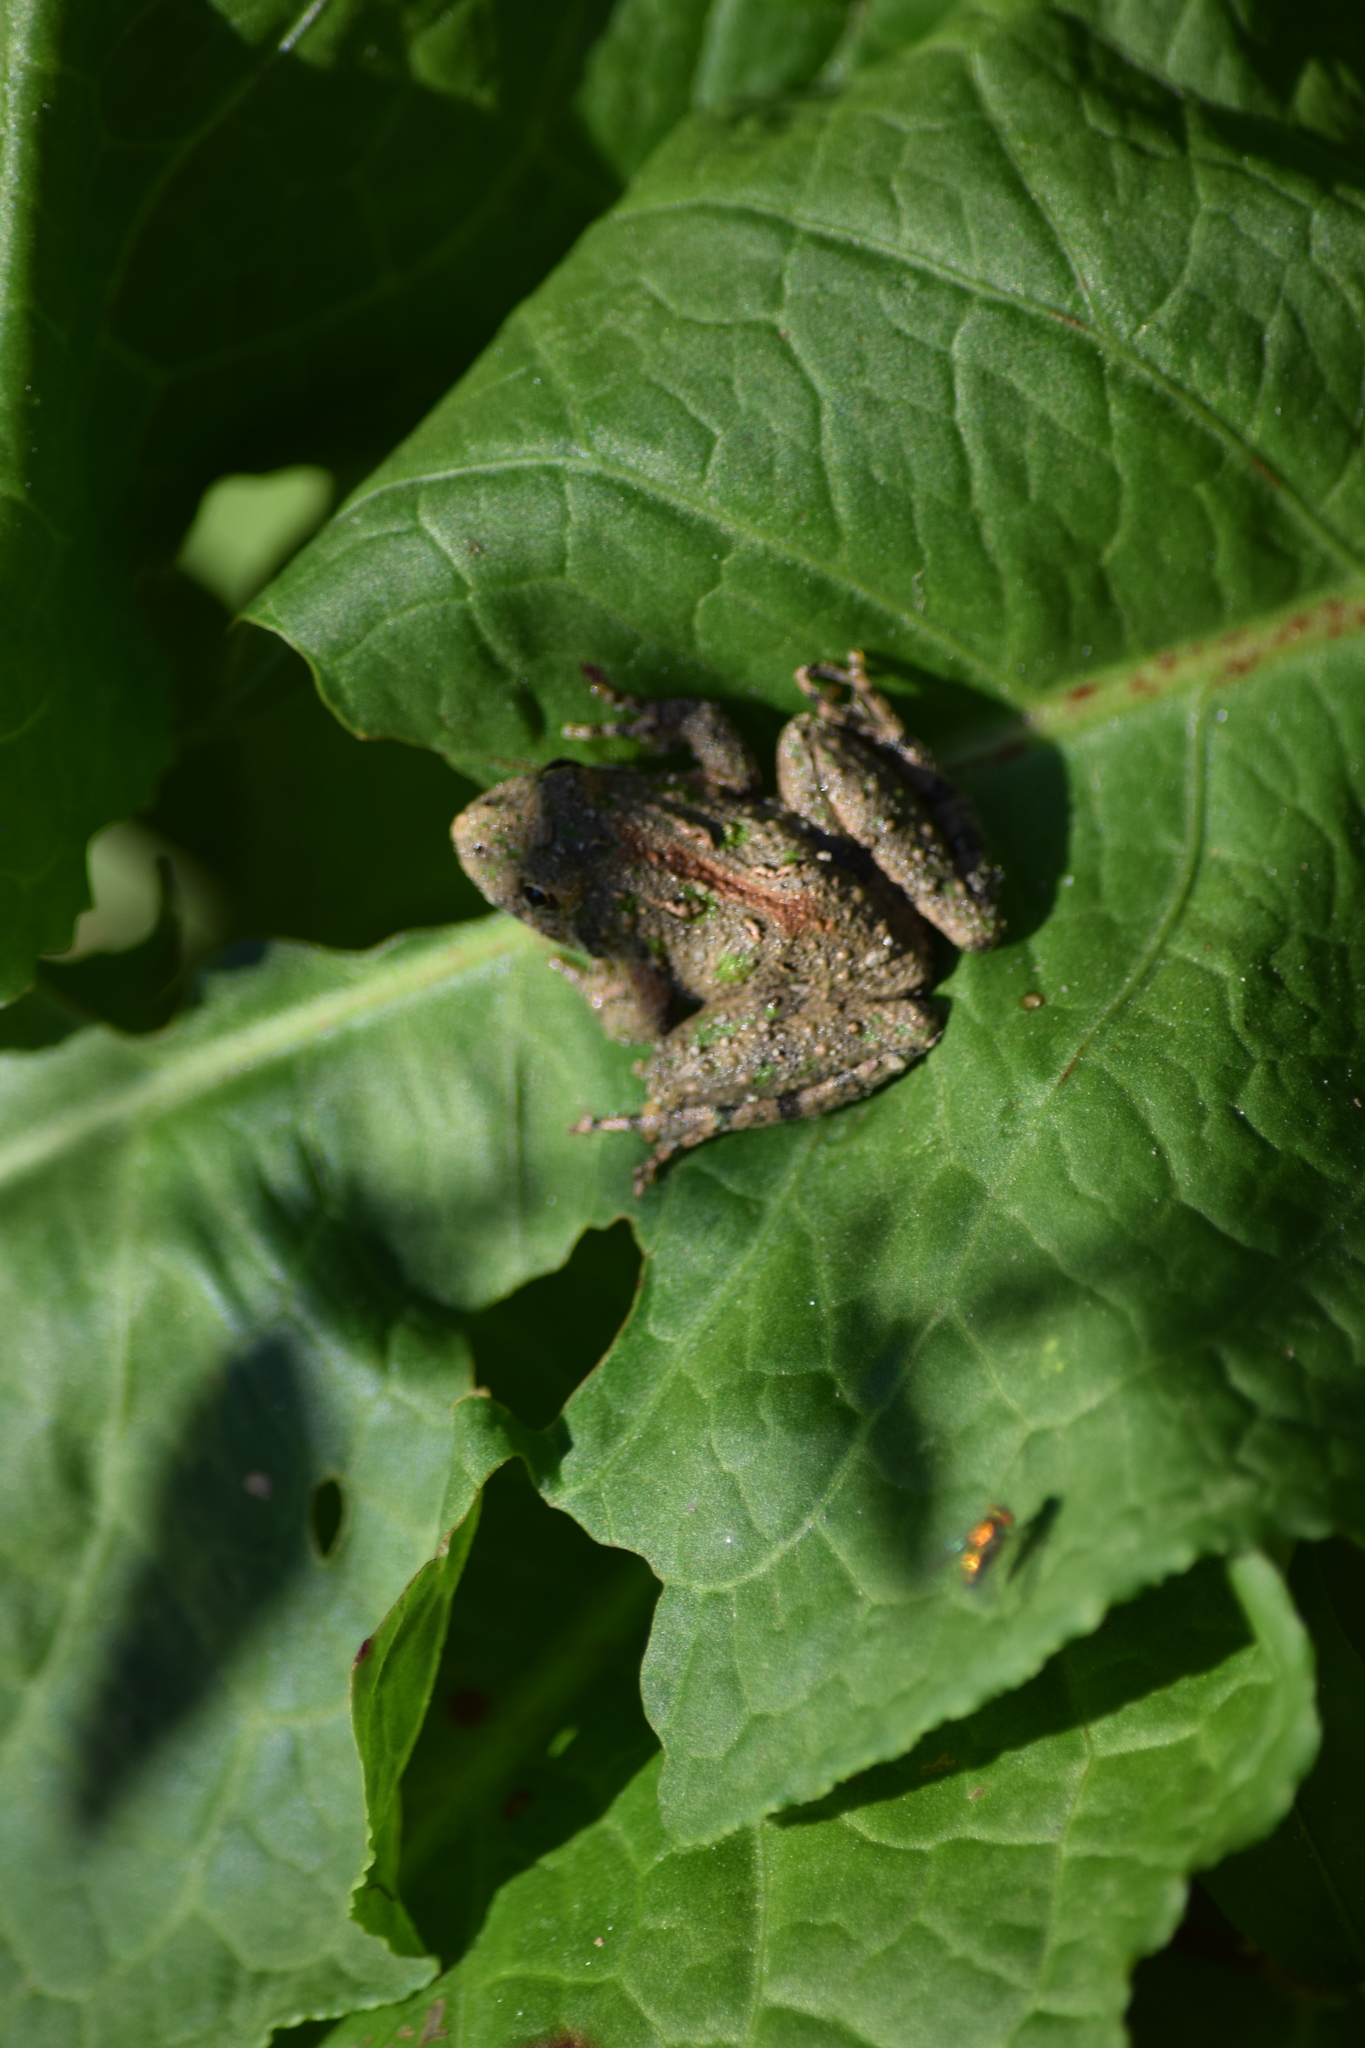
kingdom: Animalia
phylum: Chordata
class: Amphibia
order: Anura
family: Hylidae
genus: Acris
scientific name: Acris crepitans
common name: Northern cricket frog
